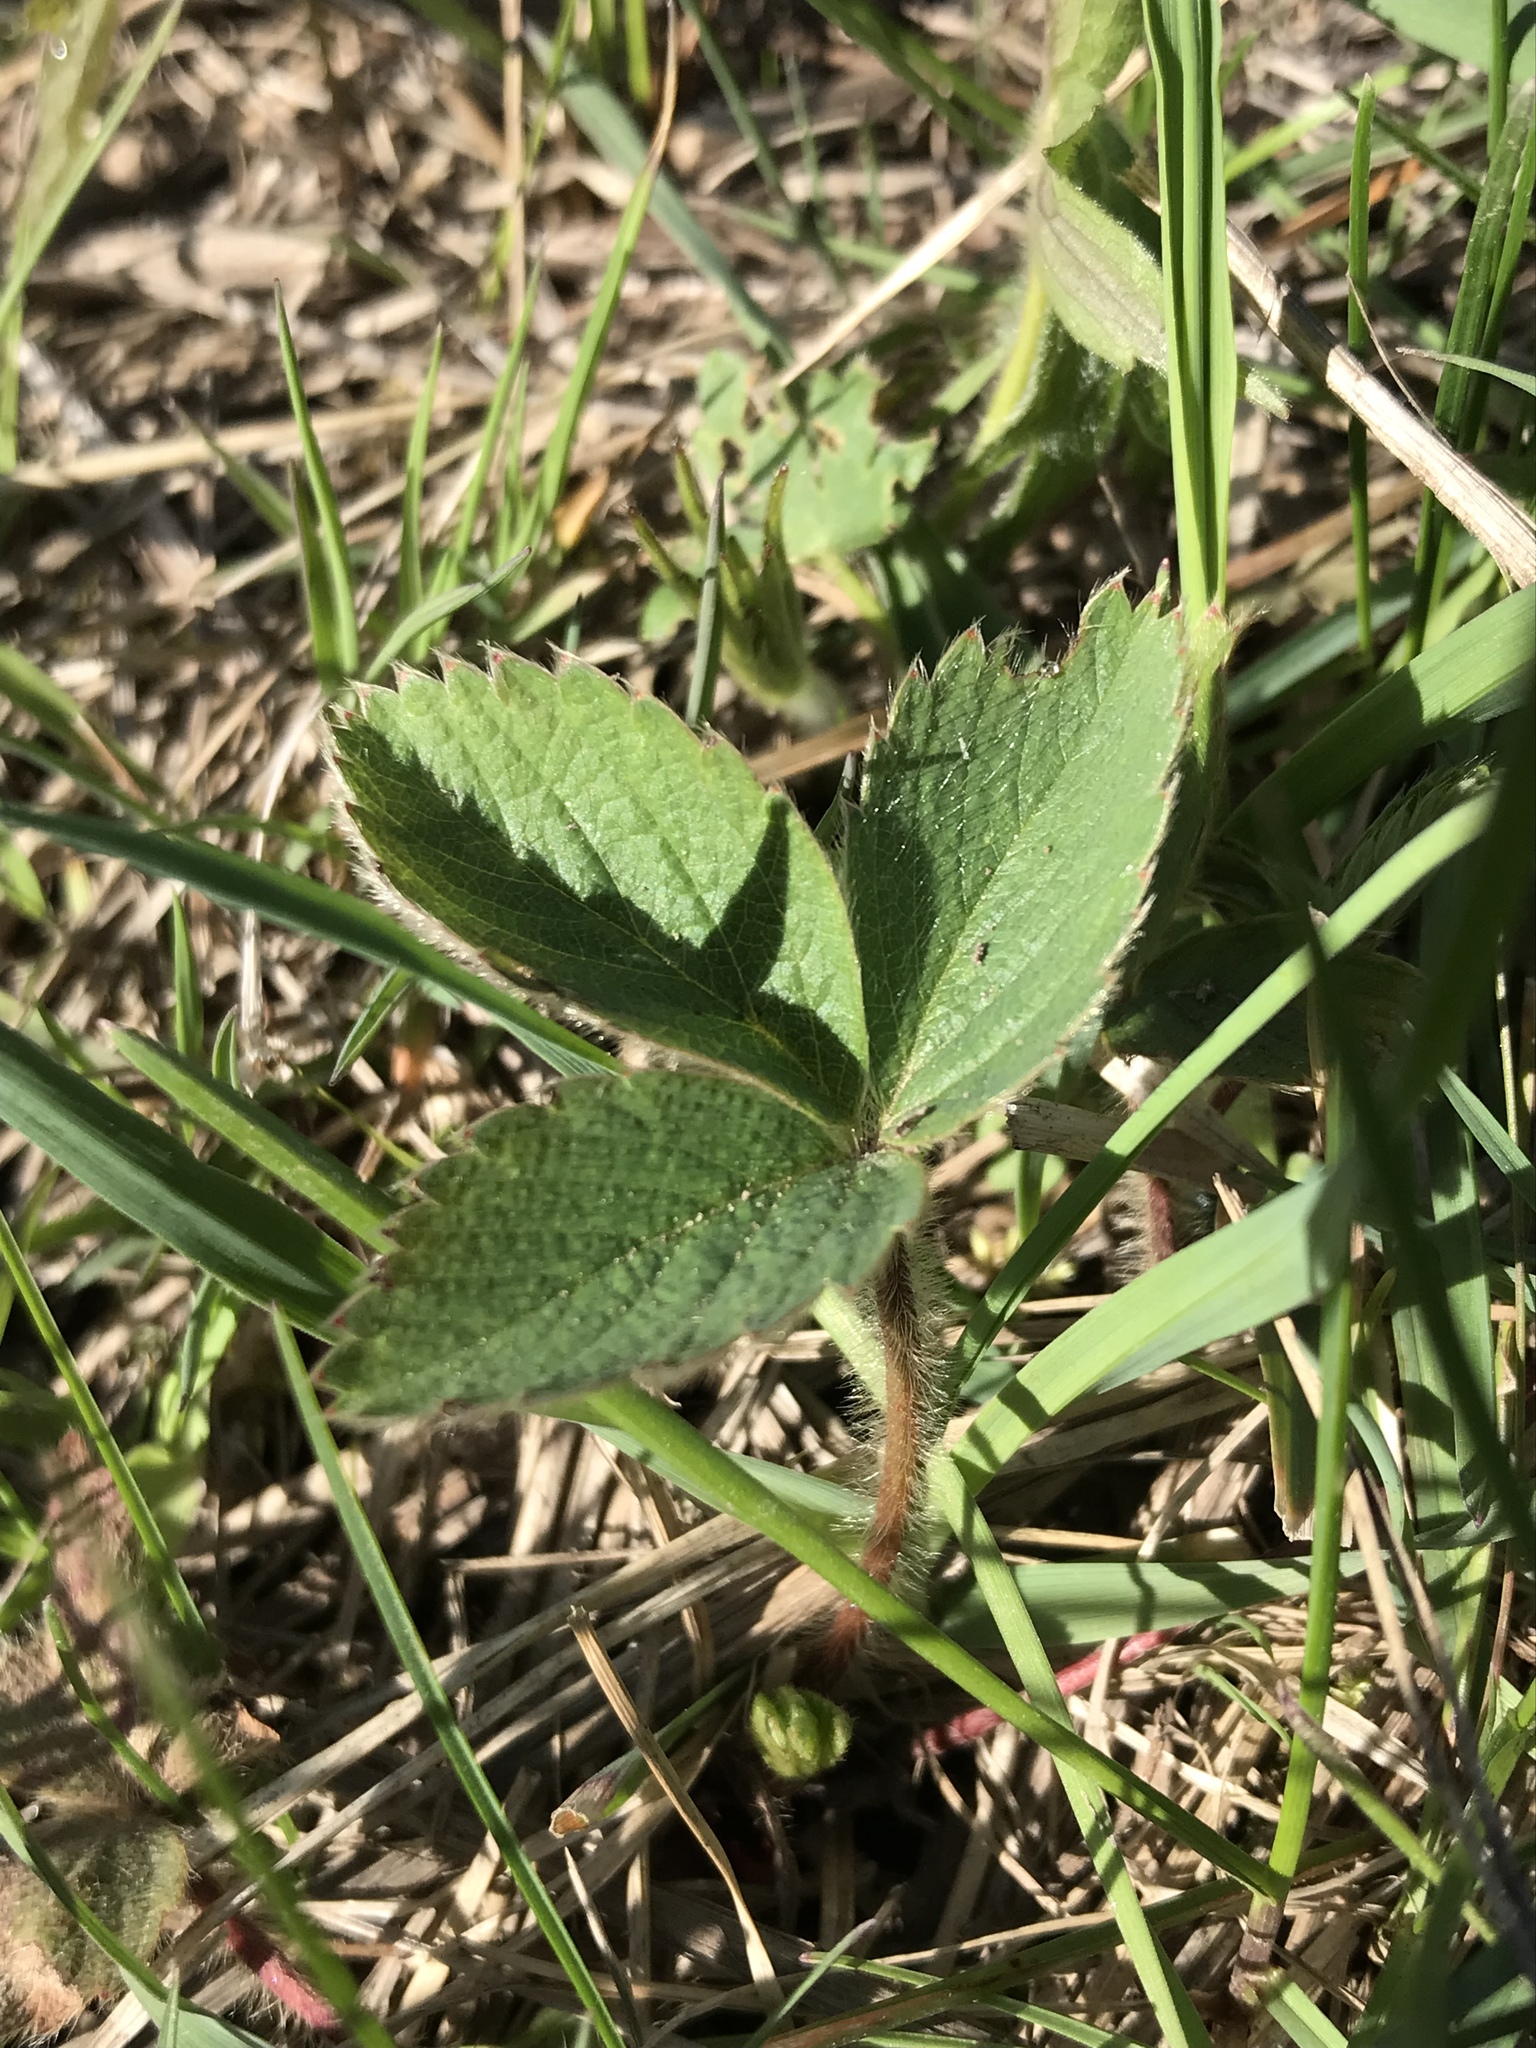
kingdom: Plantae
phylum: Tracheophyta
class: Magnoliopsida
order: Rosales
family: Rosaceae
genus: Fragaria
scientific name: Fragaria virginiana
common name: Thickleaved wild strawberry
